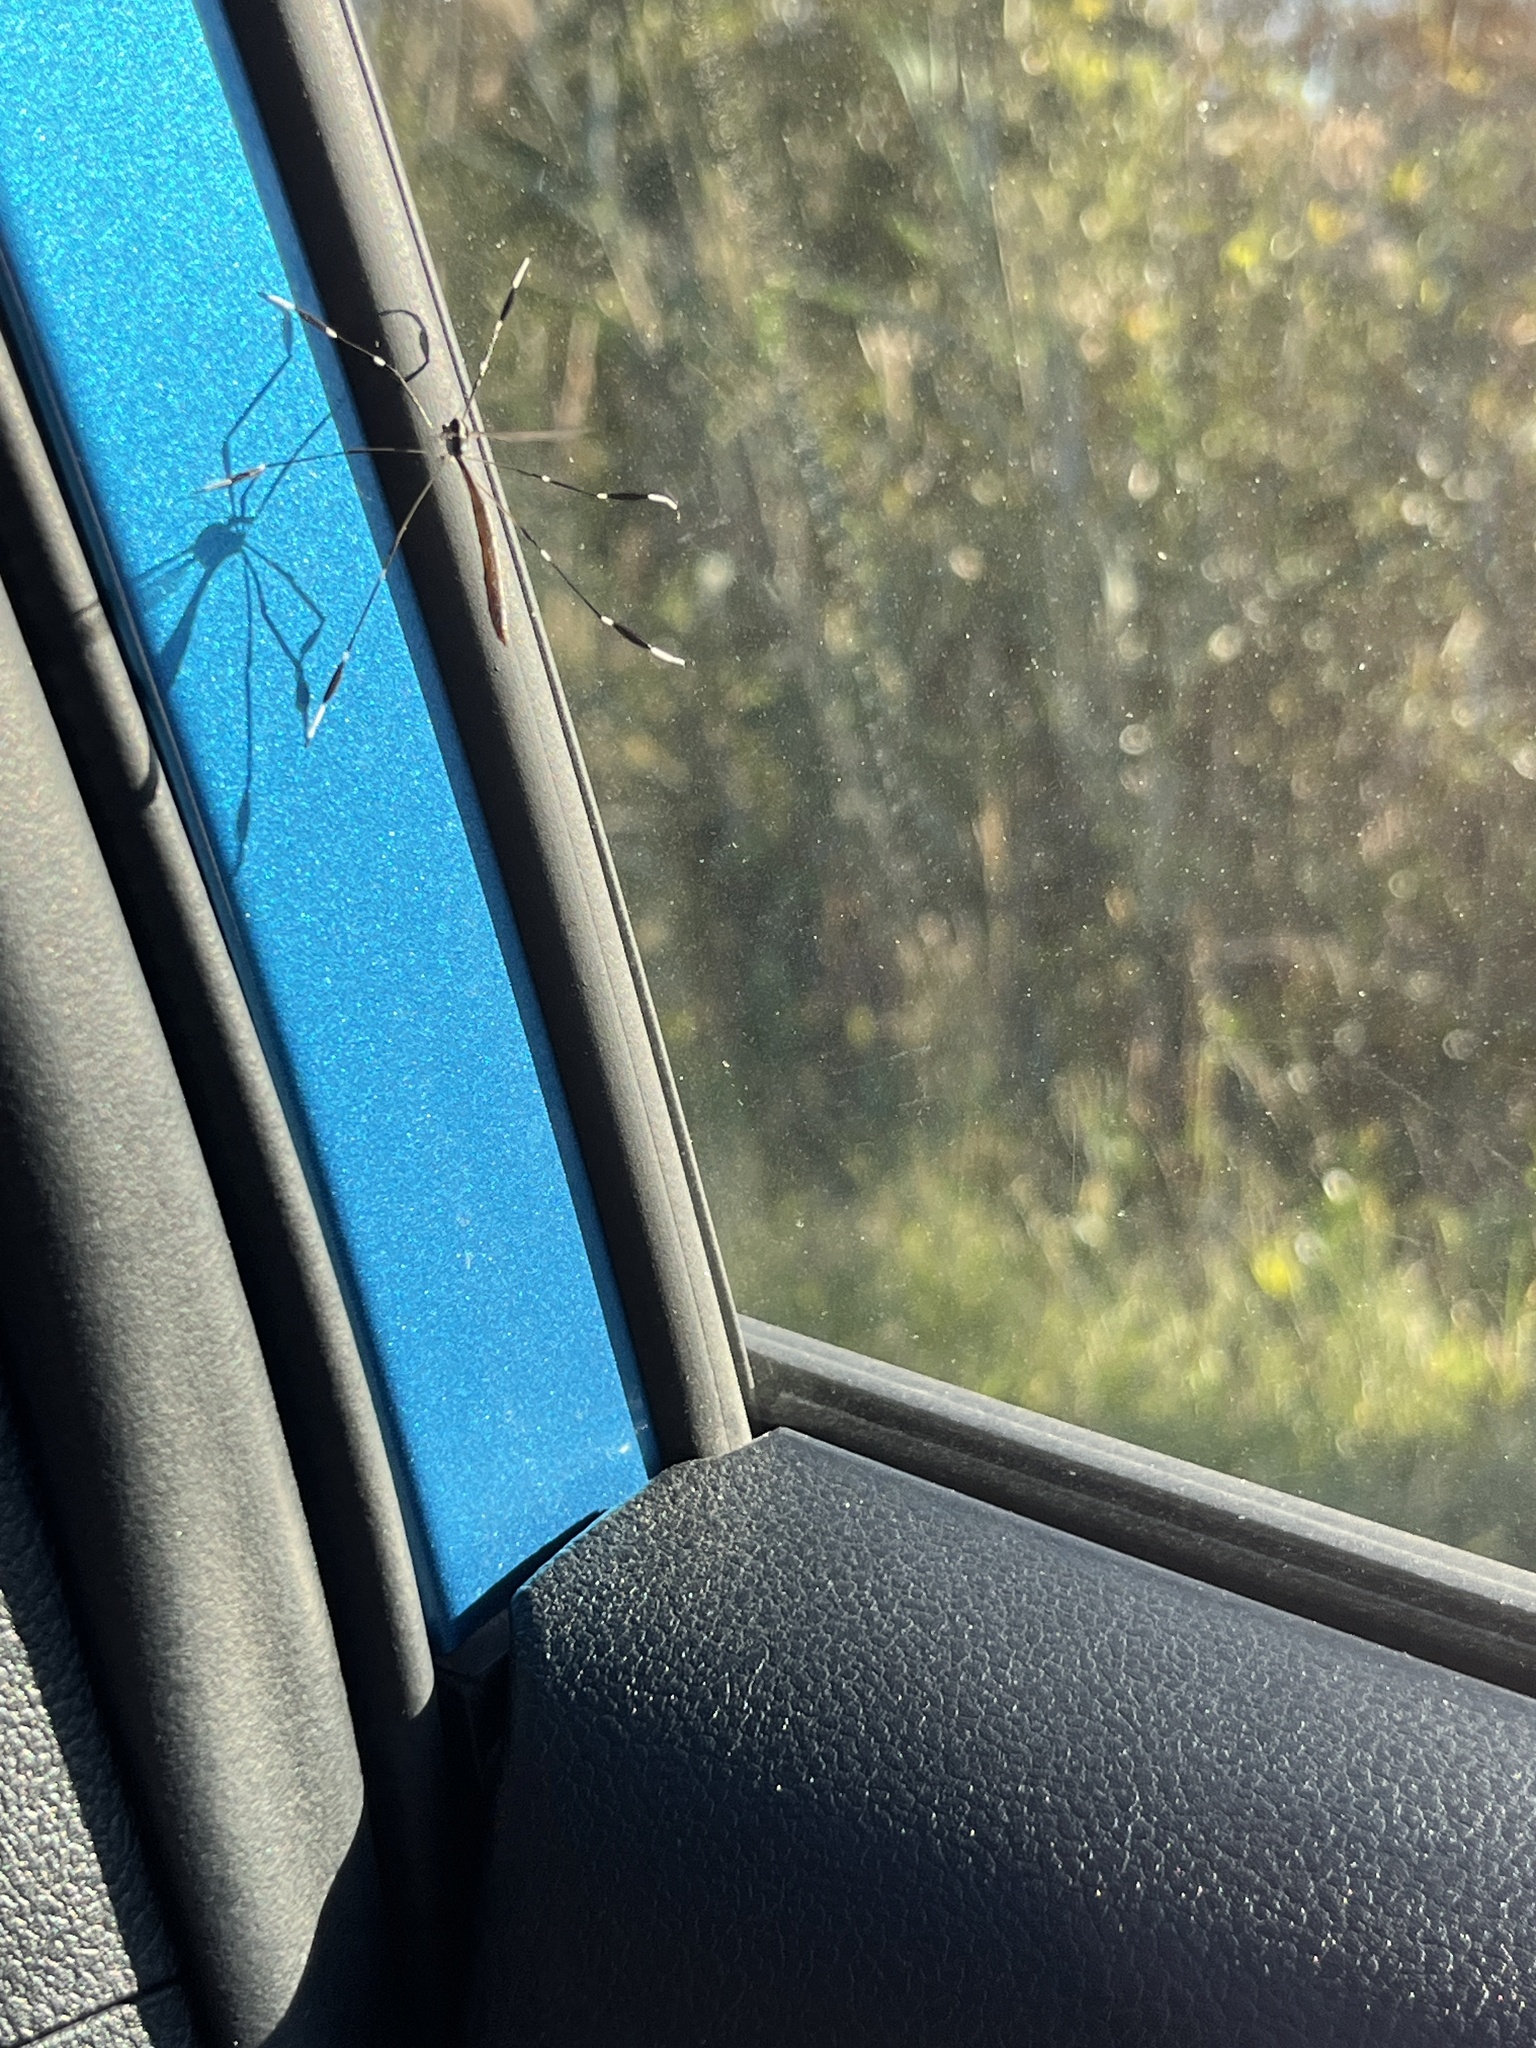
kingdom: Animalia
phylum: Arthropoda
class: Insecta
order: Diptera
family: Ptychopteridae
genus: Bittacomorpha
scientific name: Bittacomorpha clavipes
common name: Eastern phantom crane fly
